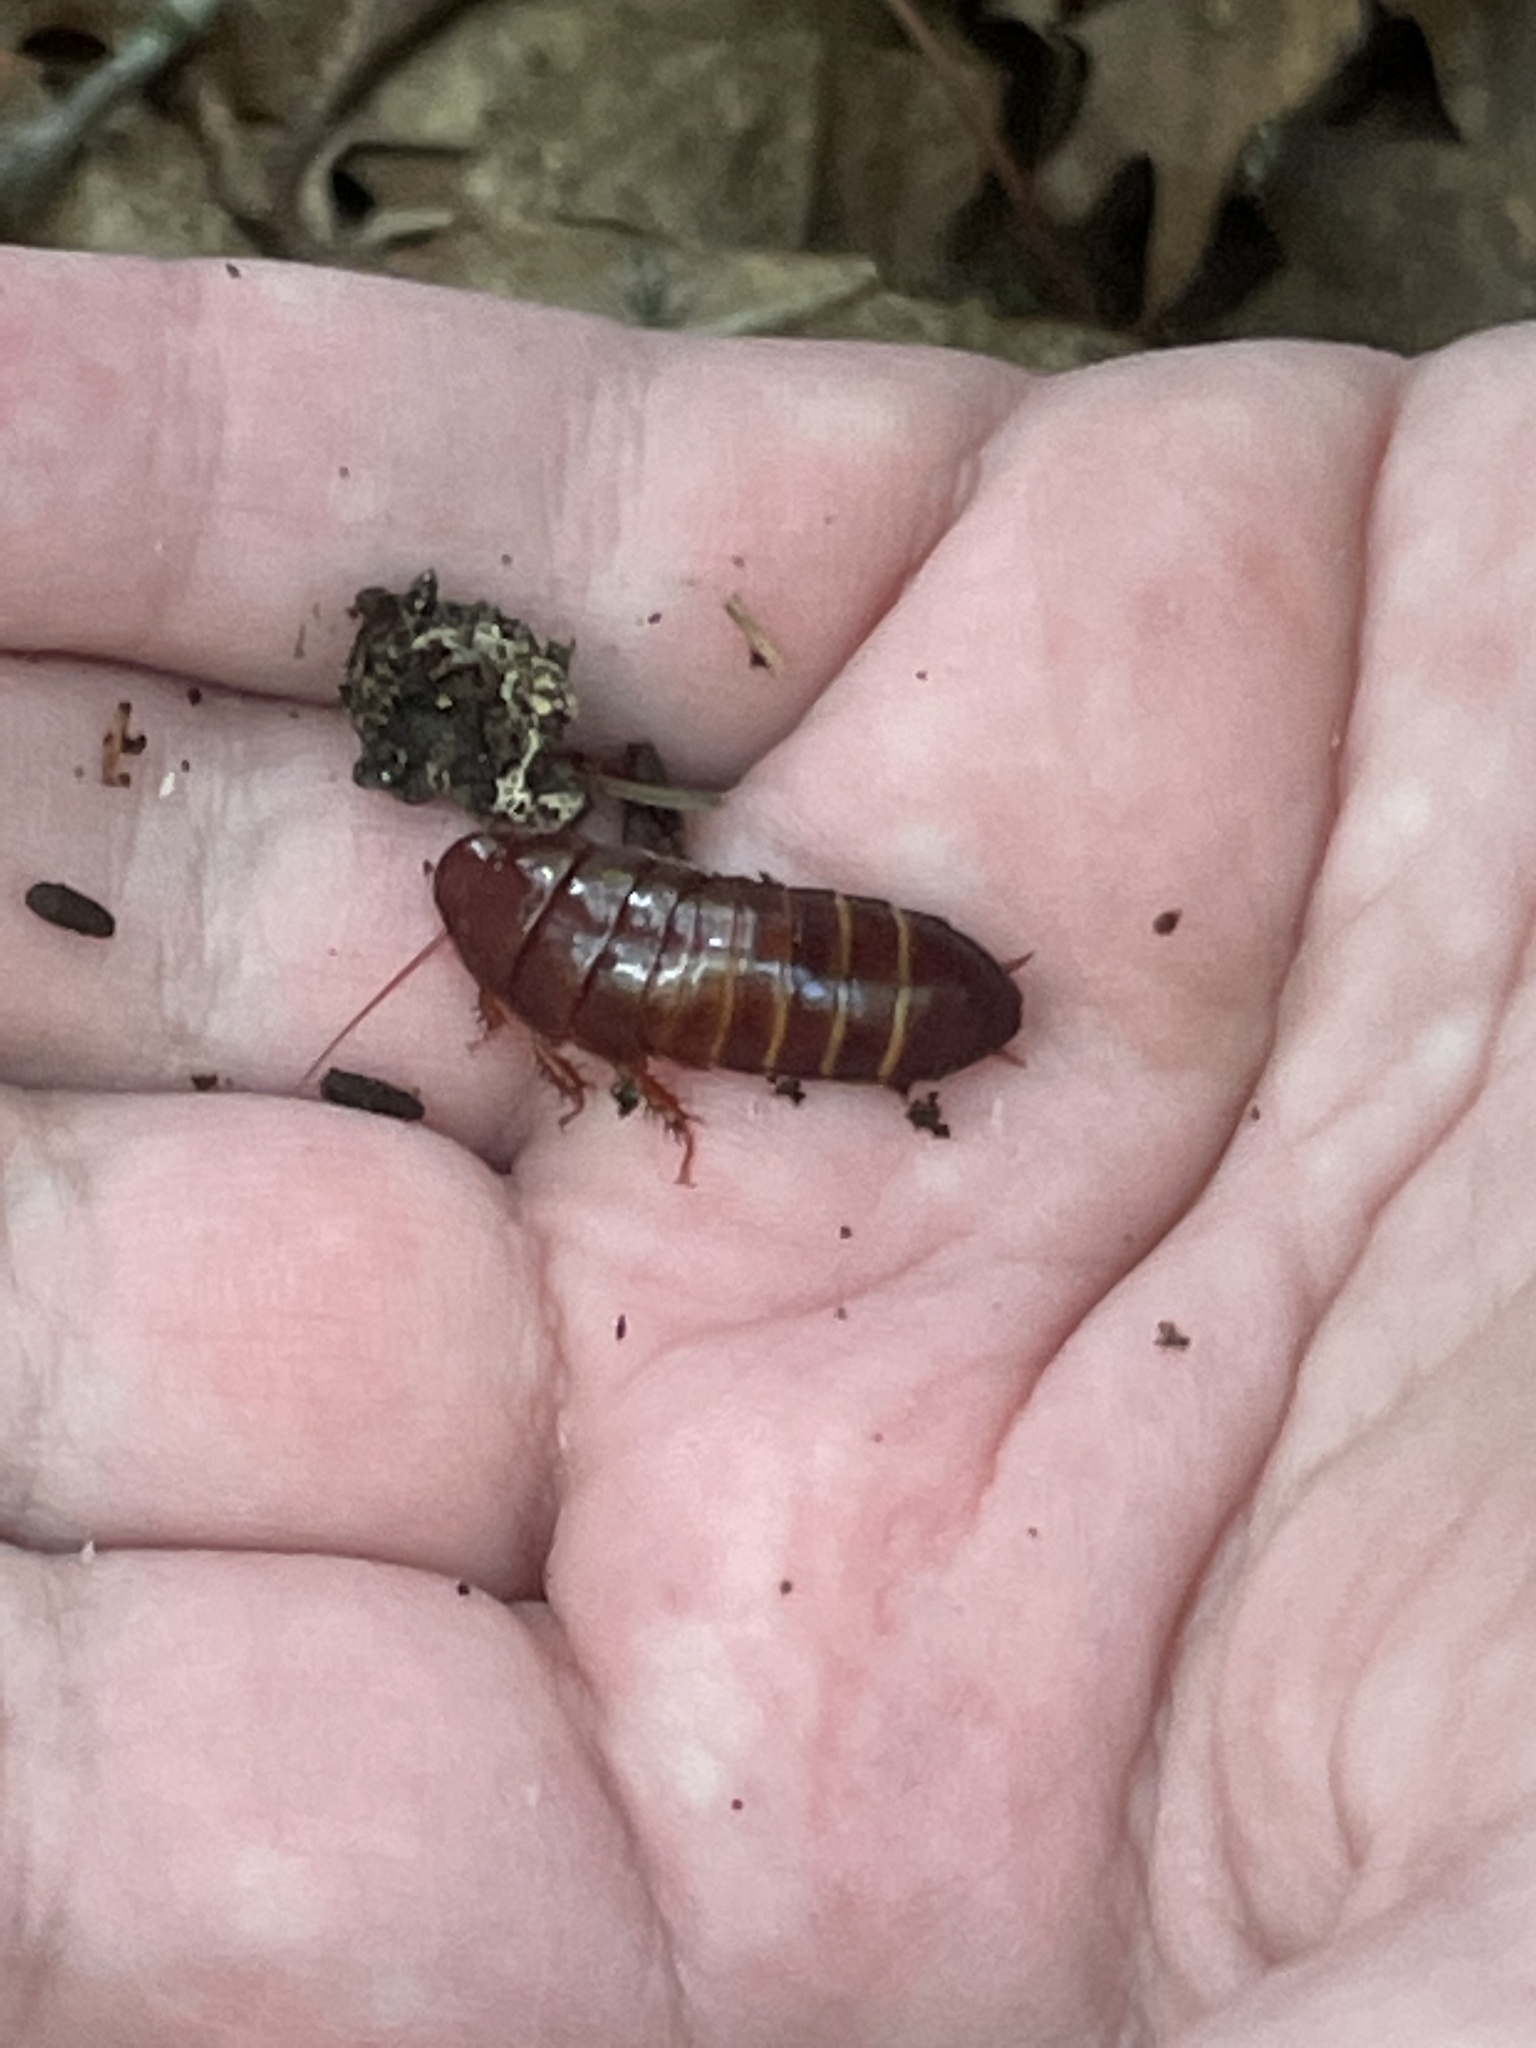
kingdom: Animalia
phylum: Arthropoda
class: Insecta
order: Blattodea
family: Cryptocercidae
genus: Cryptocercus
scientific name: Cryptocercus garciai
